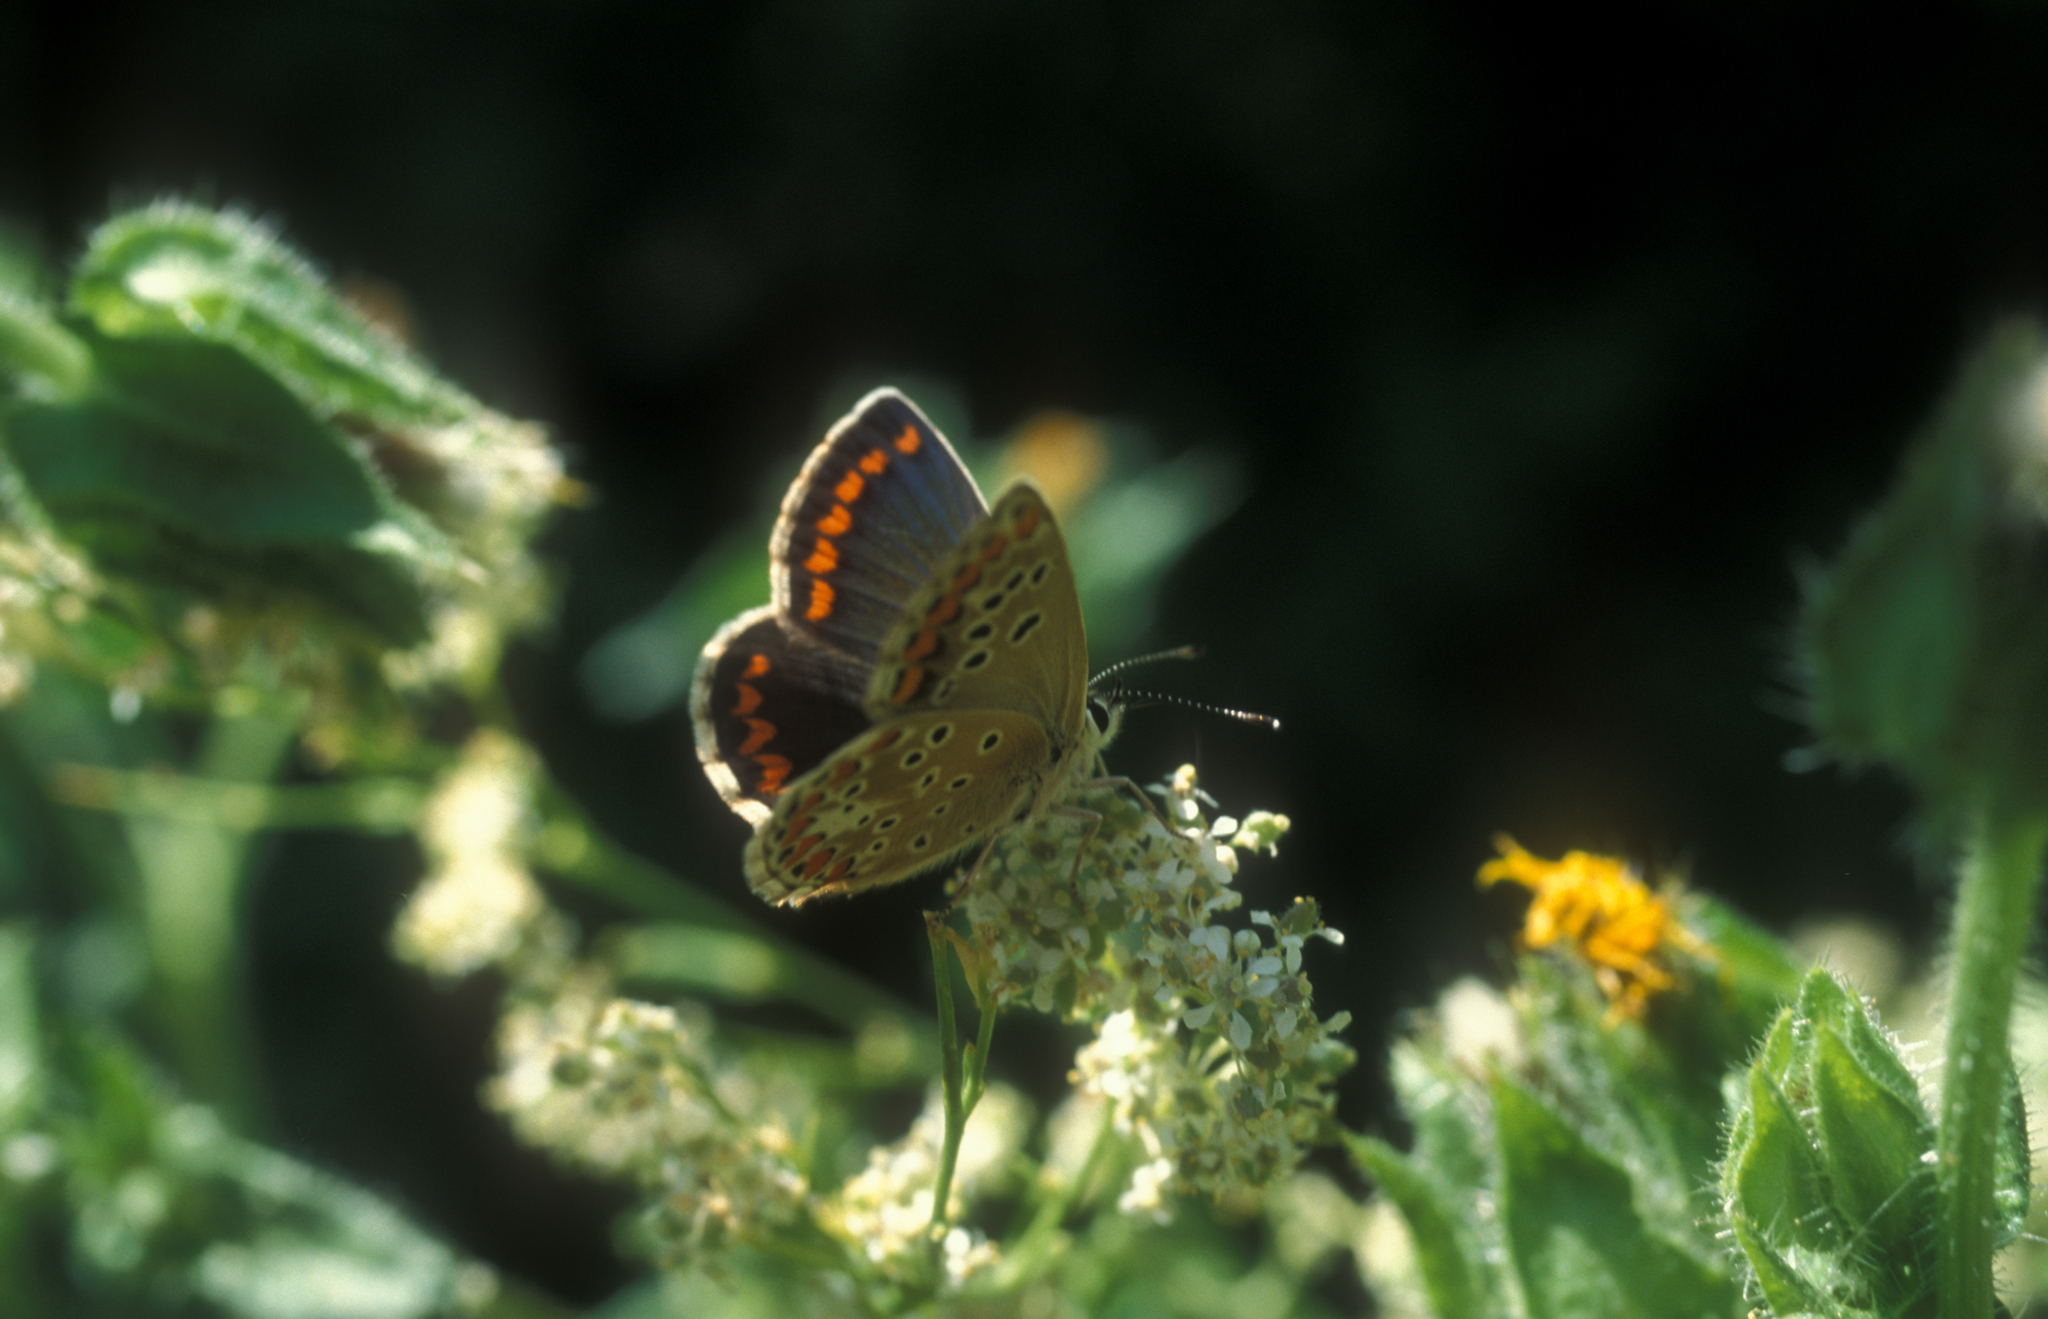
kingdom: Animalia
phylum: Arthropoda
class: Insecta
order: Lepidoptera
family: Lycaenidae
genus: Aricia
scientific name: Aricia agestis
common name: Brown argus
